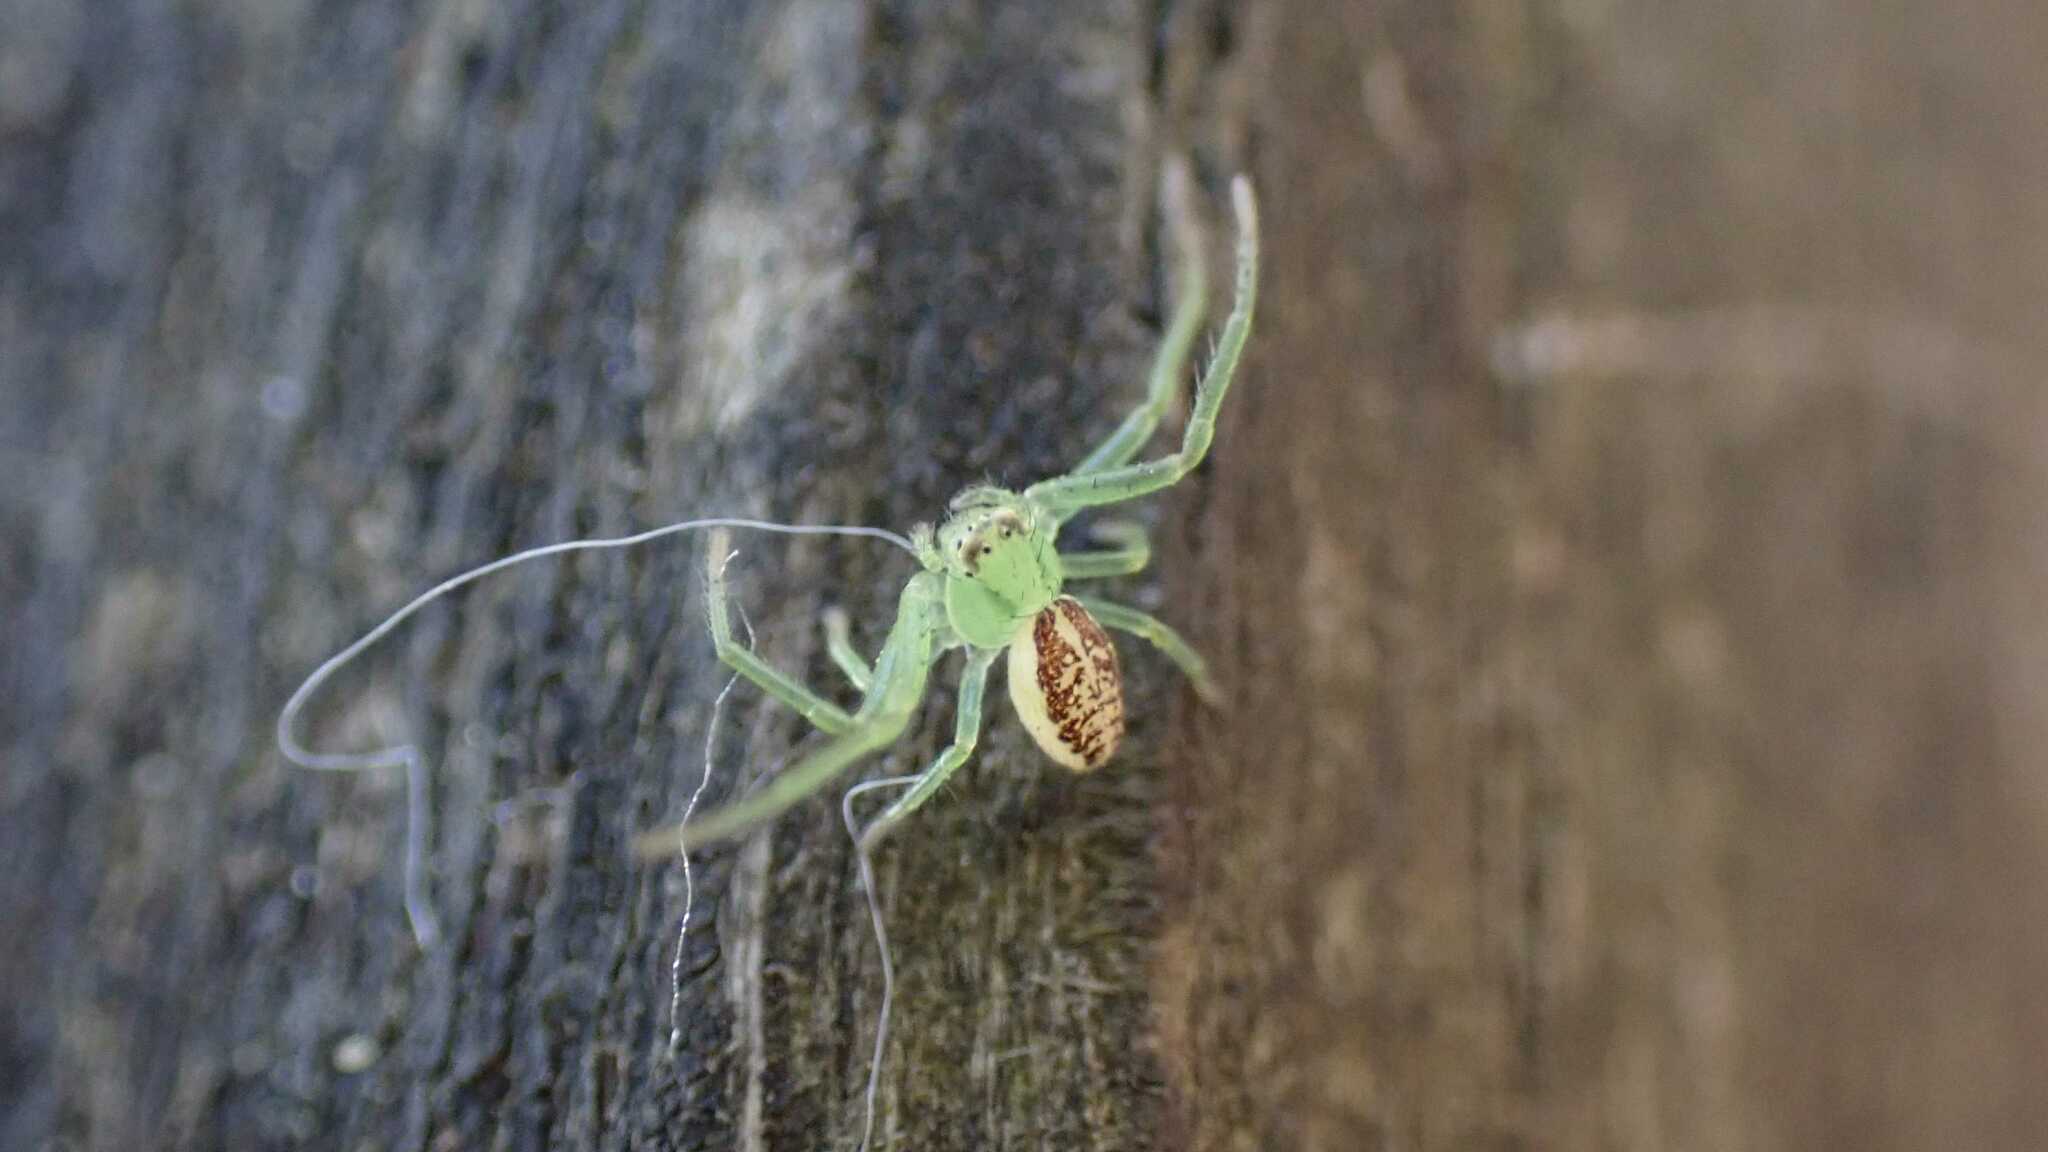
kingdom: Animalia
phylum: Arthropoda
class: Arachnida
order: Araneae
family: Thomisidae
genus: Diaea
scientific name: Diaea dorsata
